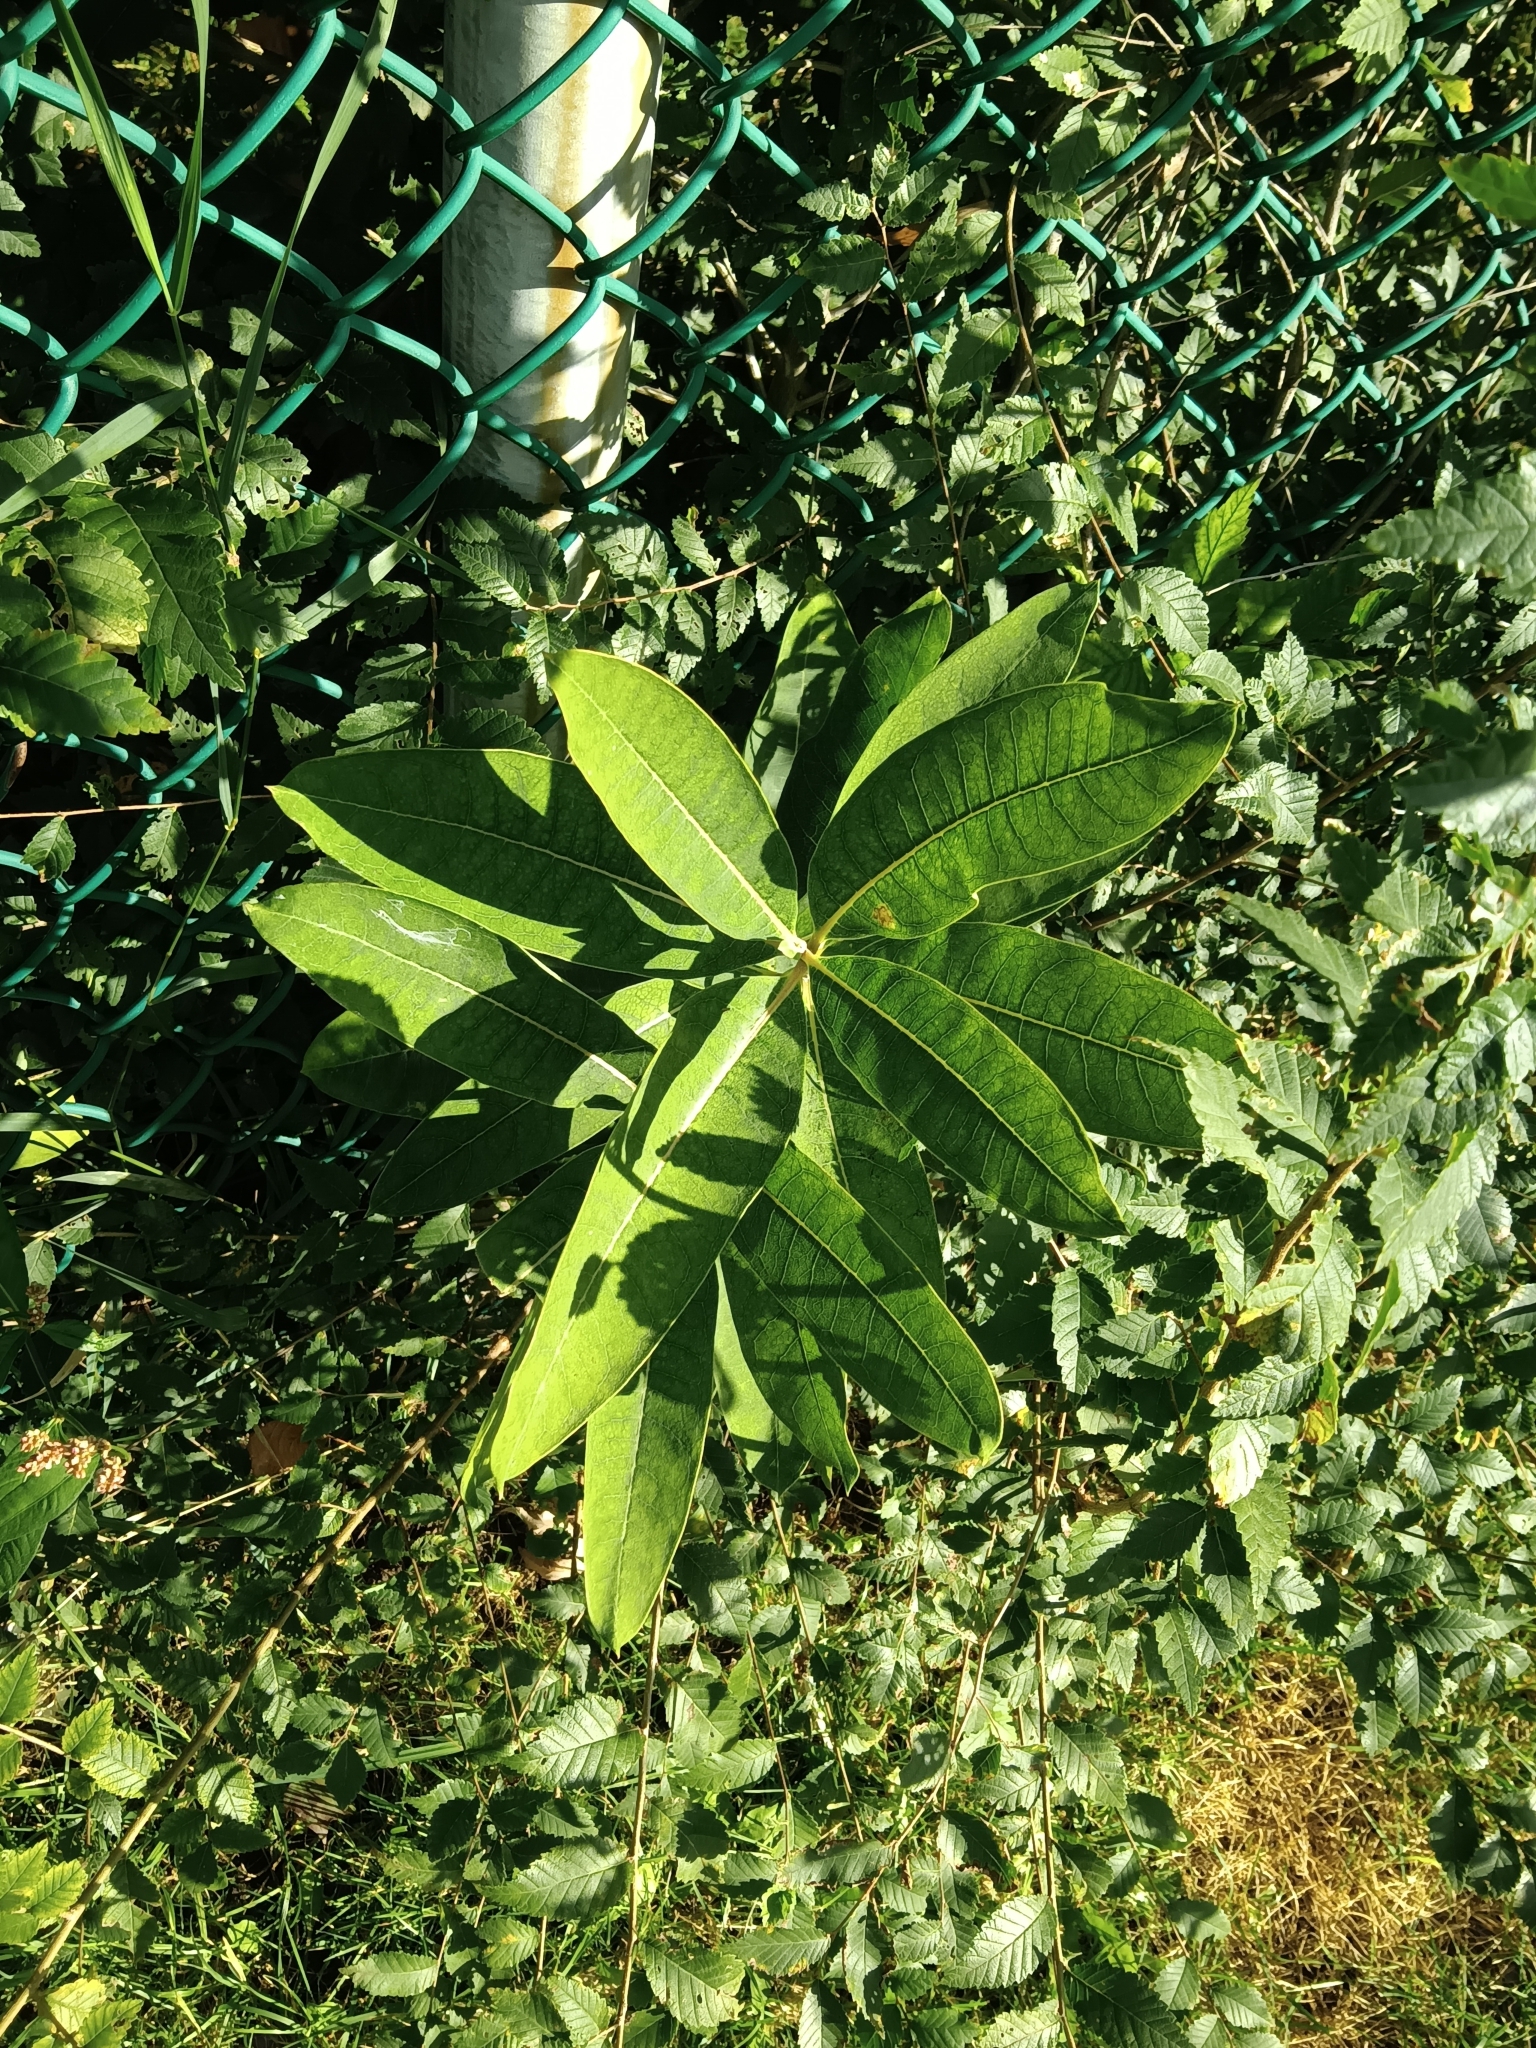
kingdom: Plantae
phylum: Tracheophyta
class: Magnoliopsida
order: Gentianales
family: Apocynaceae
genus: Asclepias
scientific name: Asclepias syriaca
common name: Common milkweed
